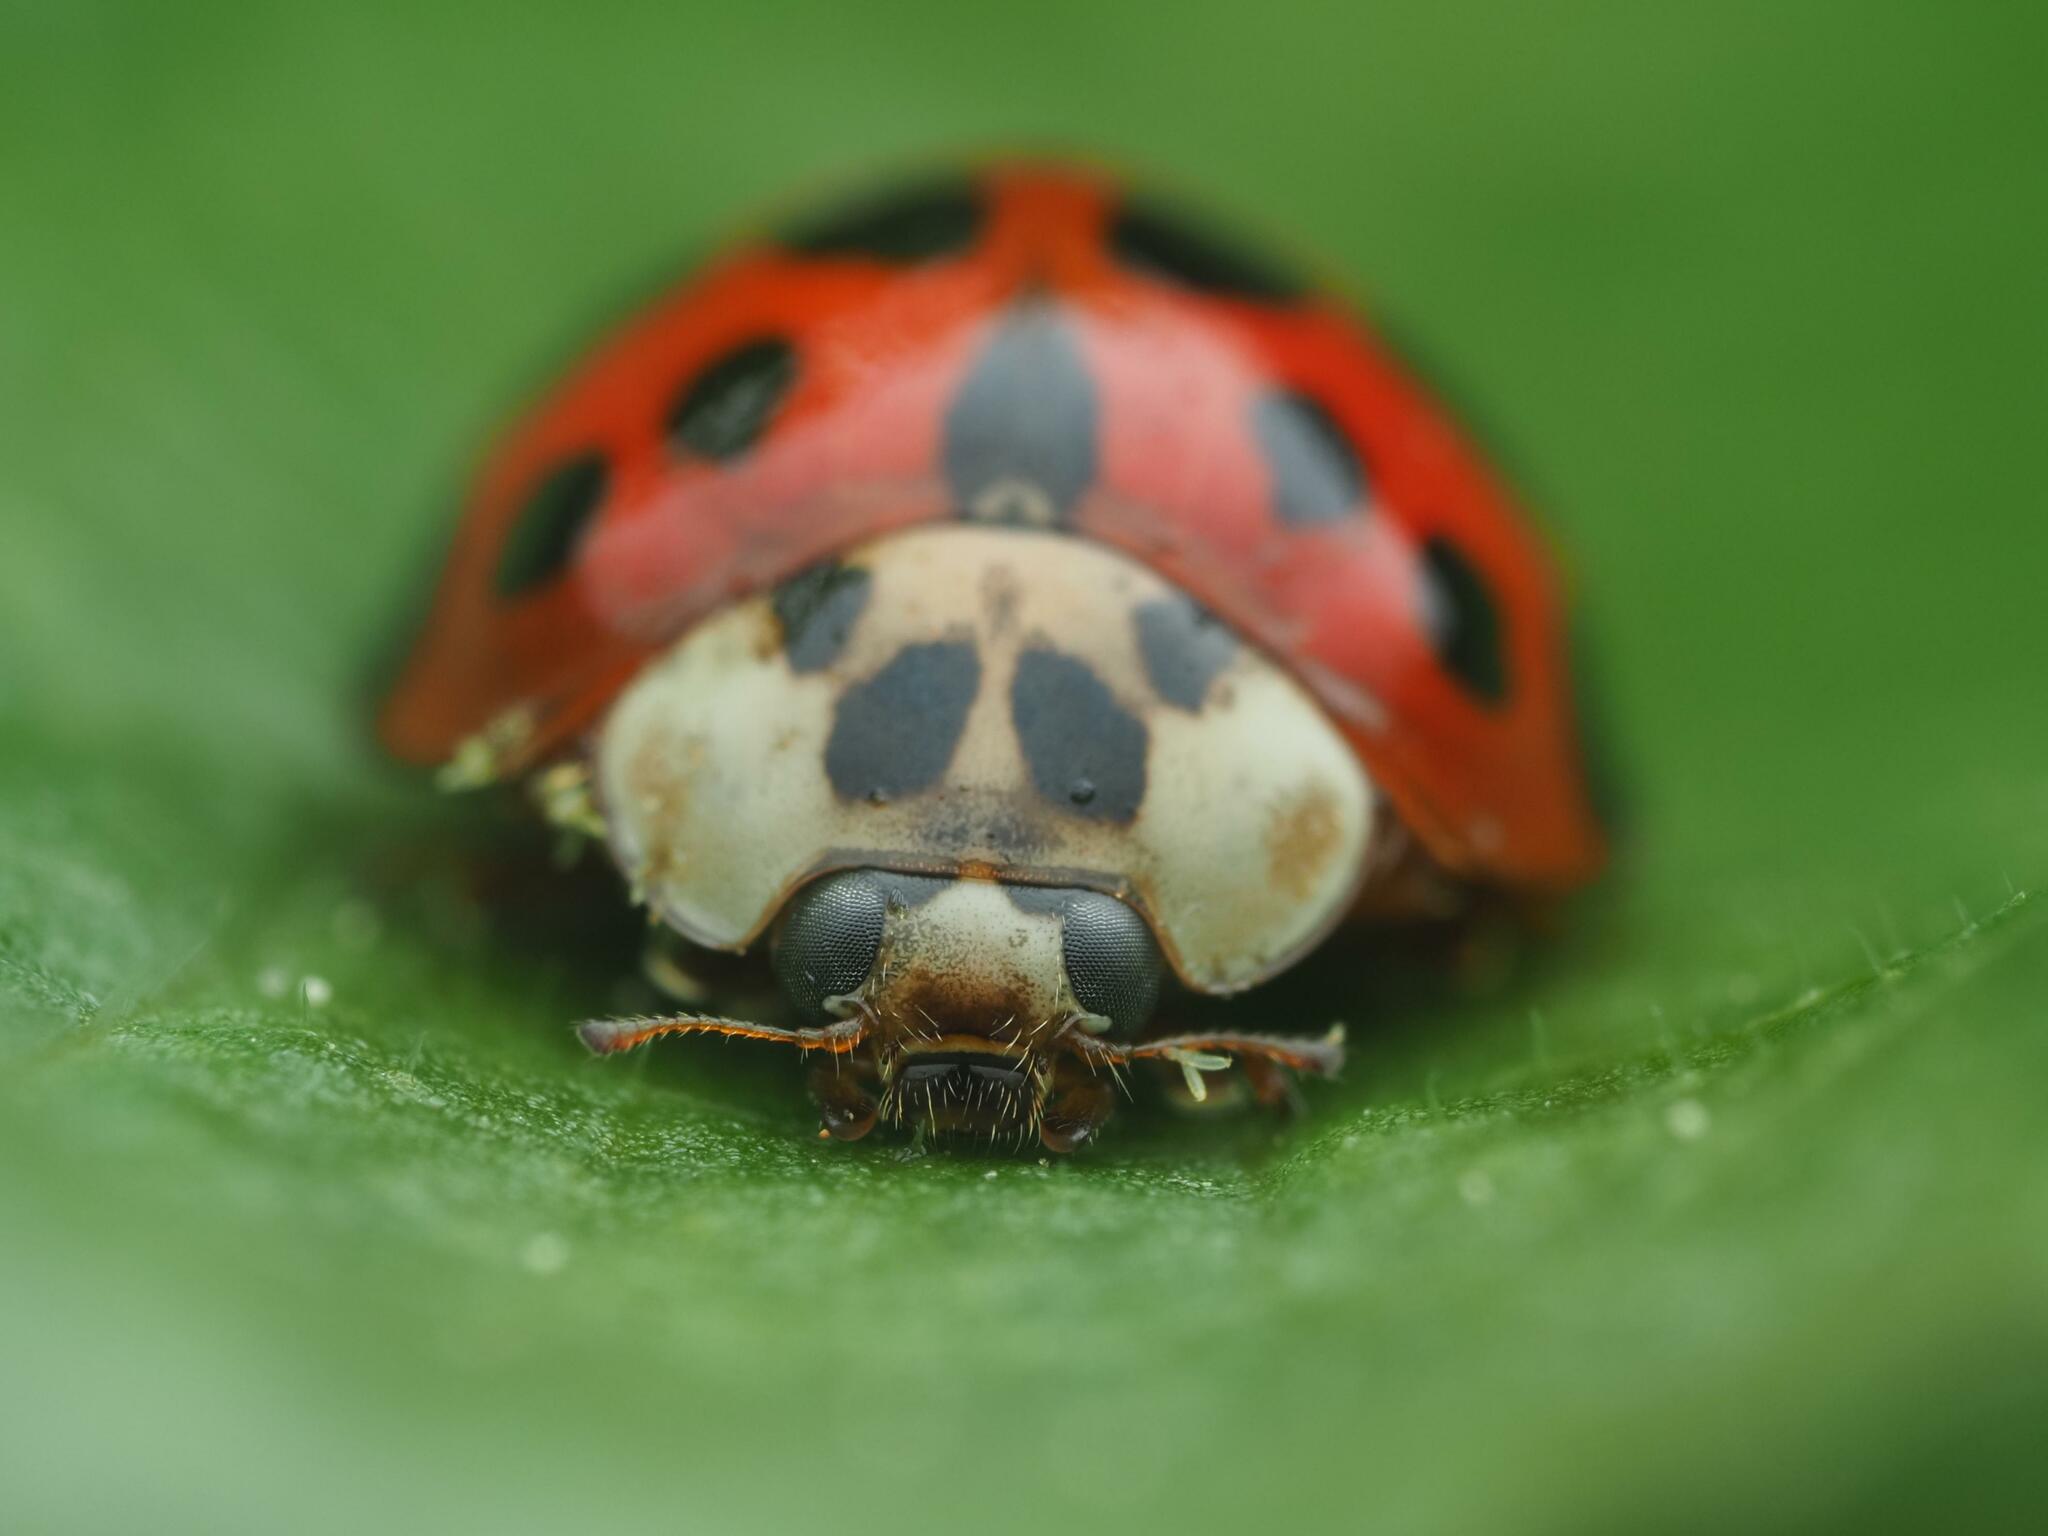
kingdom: Animalia
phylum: Arthropoda
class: Insecta
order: Coleoptera
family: Coccinellidae
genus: Harmonia
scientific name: Harmonia axyridis
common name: Harlequin ladybird
